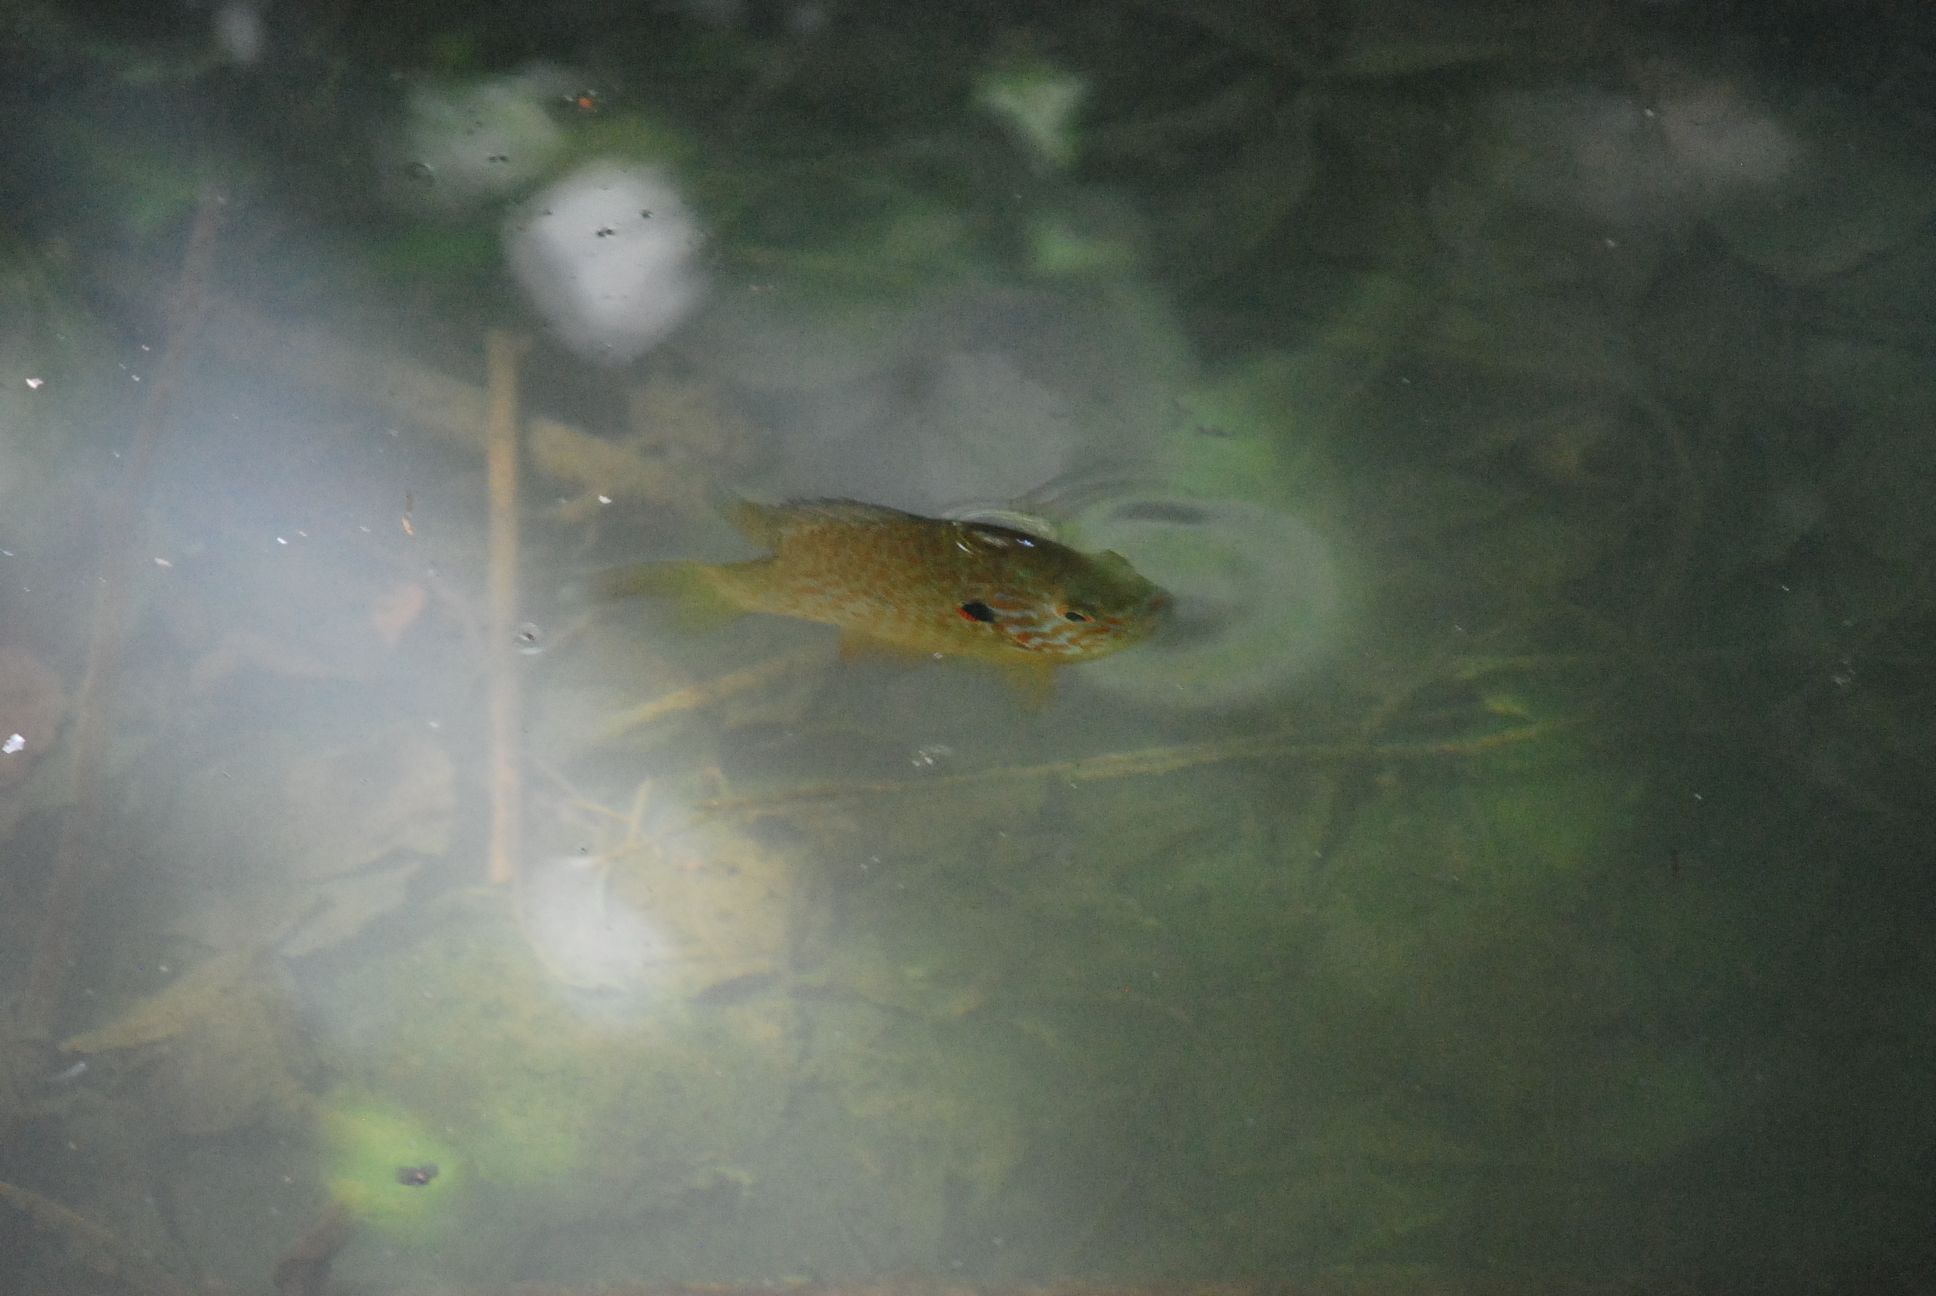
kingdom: Animalia
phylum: Chordata
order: Perciformes
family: Centrarchidae
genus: Lepomis
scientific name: Lepomis gibbosus
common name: Pumpkinseed
